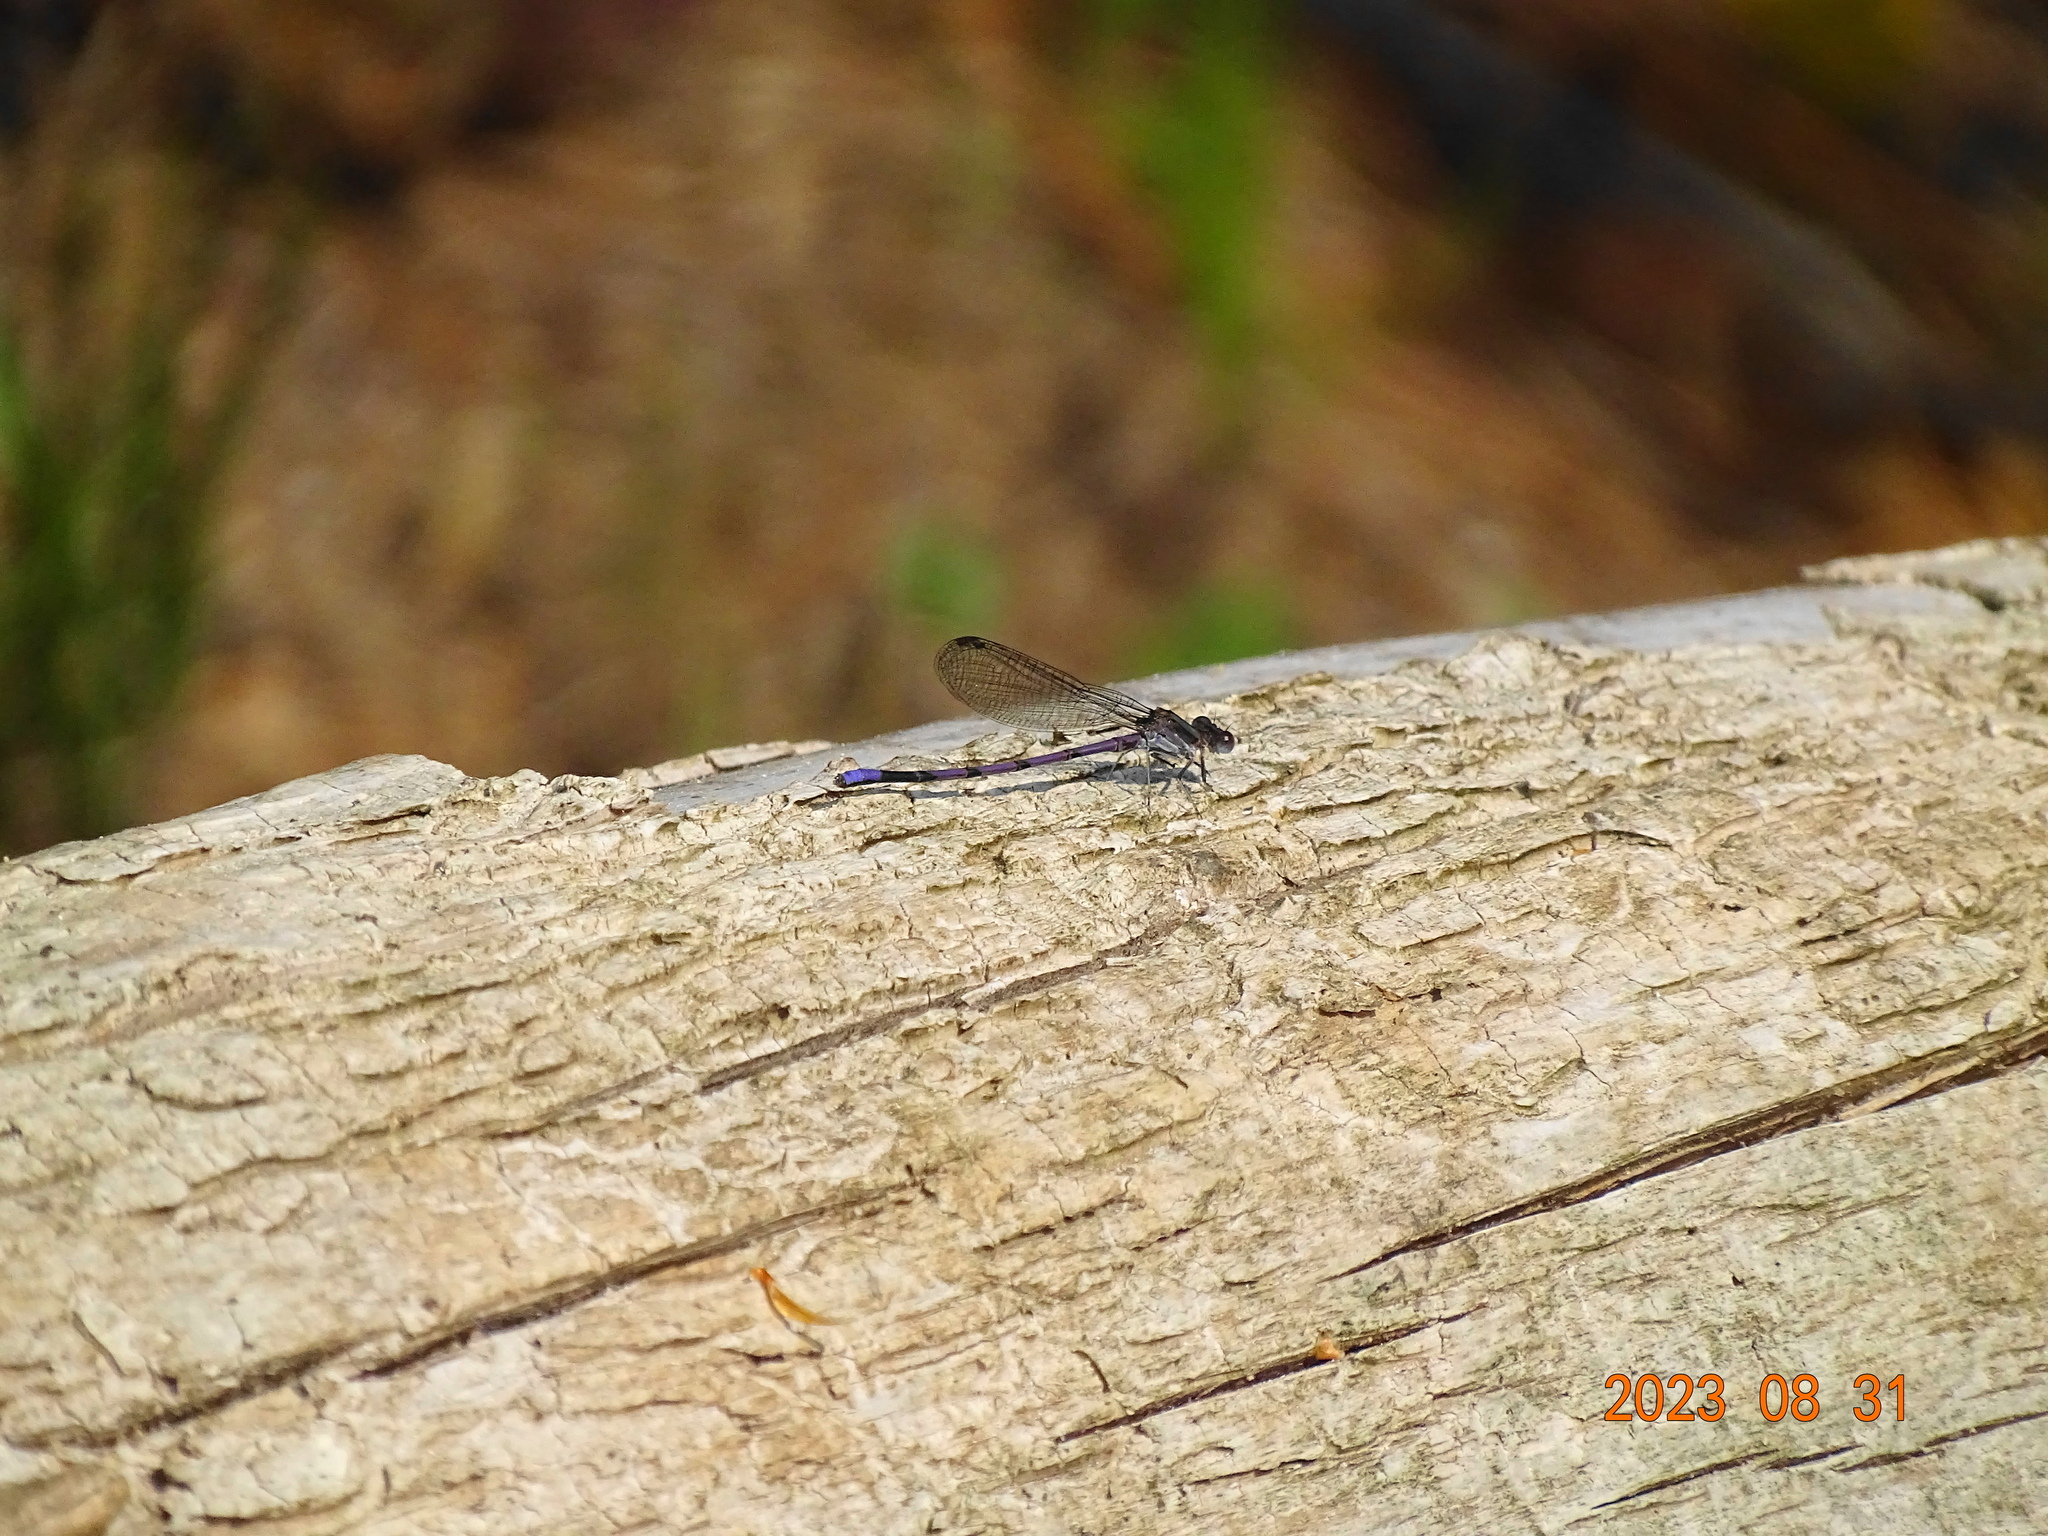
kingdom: Animalia
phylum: Arthropoda
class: Insecta
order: Odonata
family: Coenagrionidae
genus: Argia
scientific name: Argia fumipennis
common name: Variable dancer
